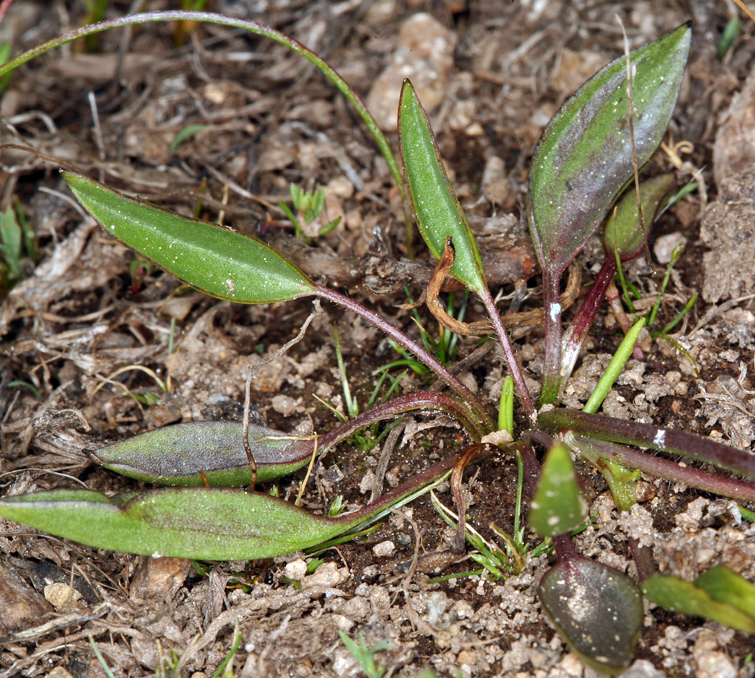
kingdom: Plantae
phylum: Tracheophyta
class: Magnoliopsida
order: Ranunculales
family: Ranunculaceae
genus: Ranunculus
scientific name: Ranunculus alismifolius
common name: Plantain-leaved buttercup
